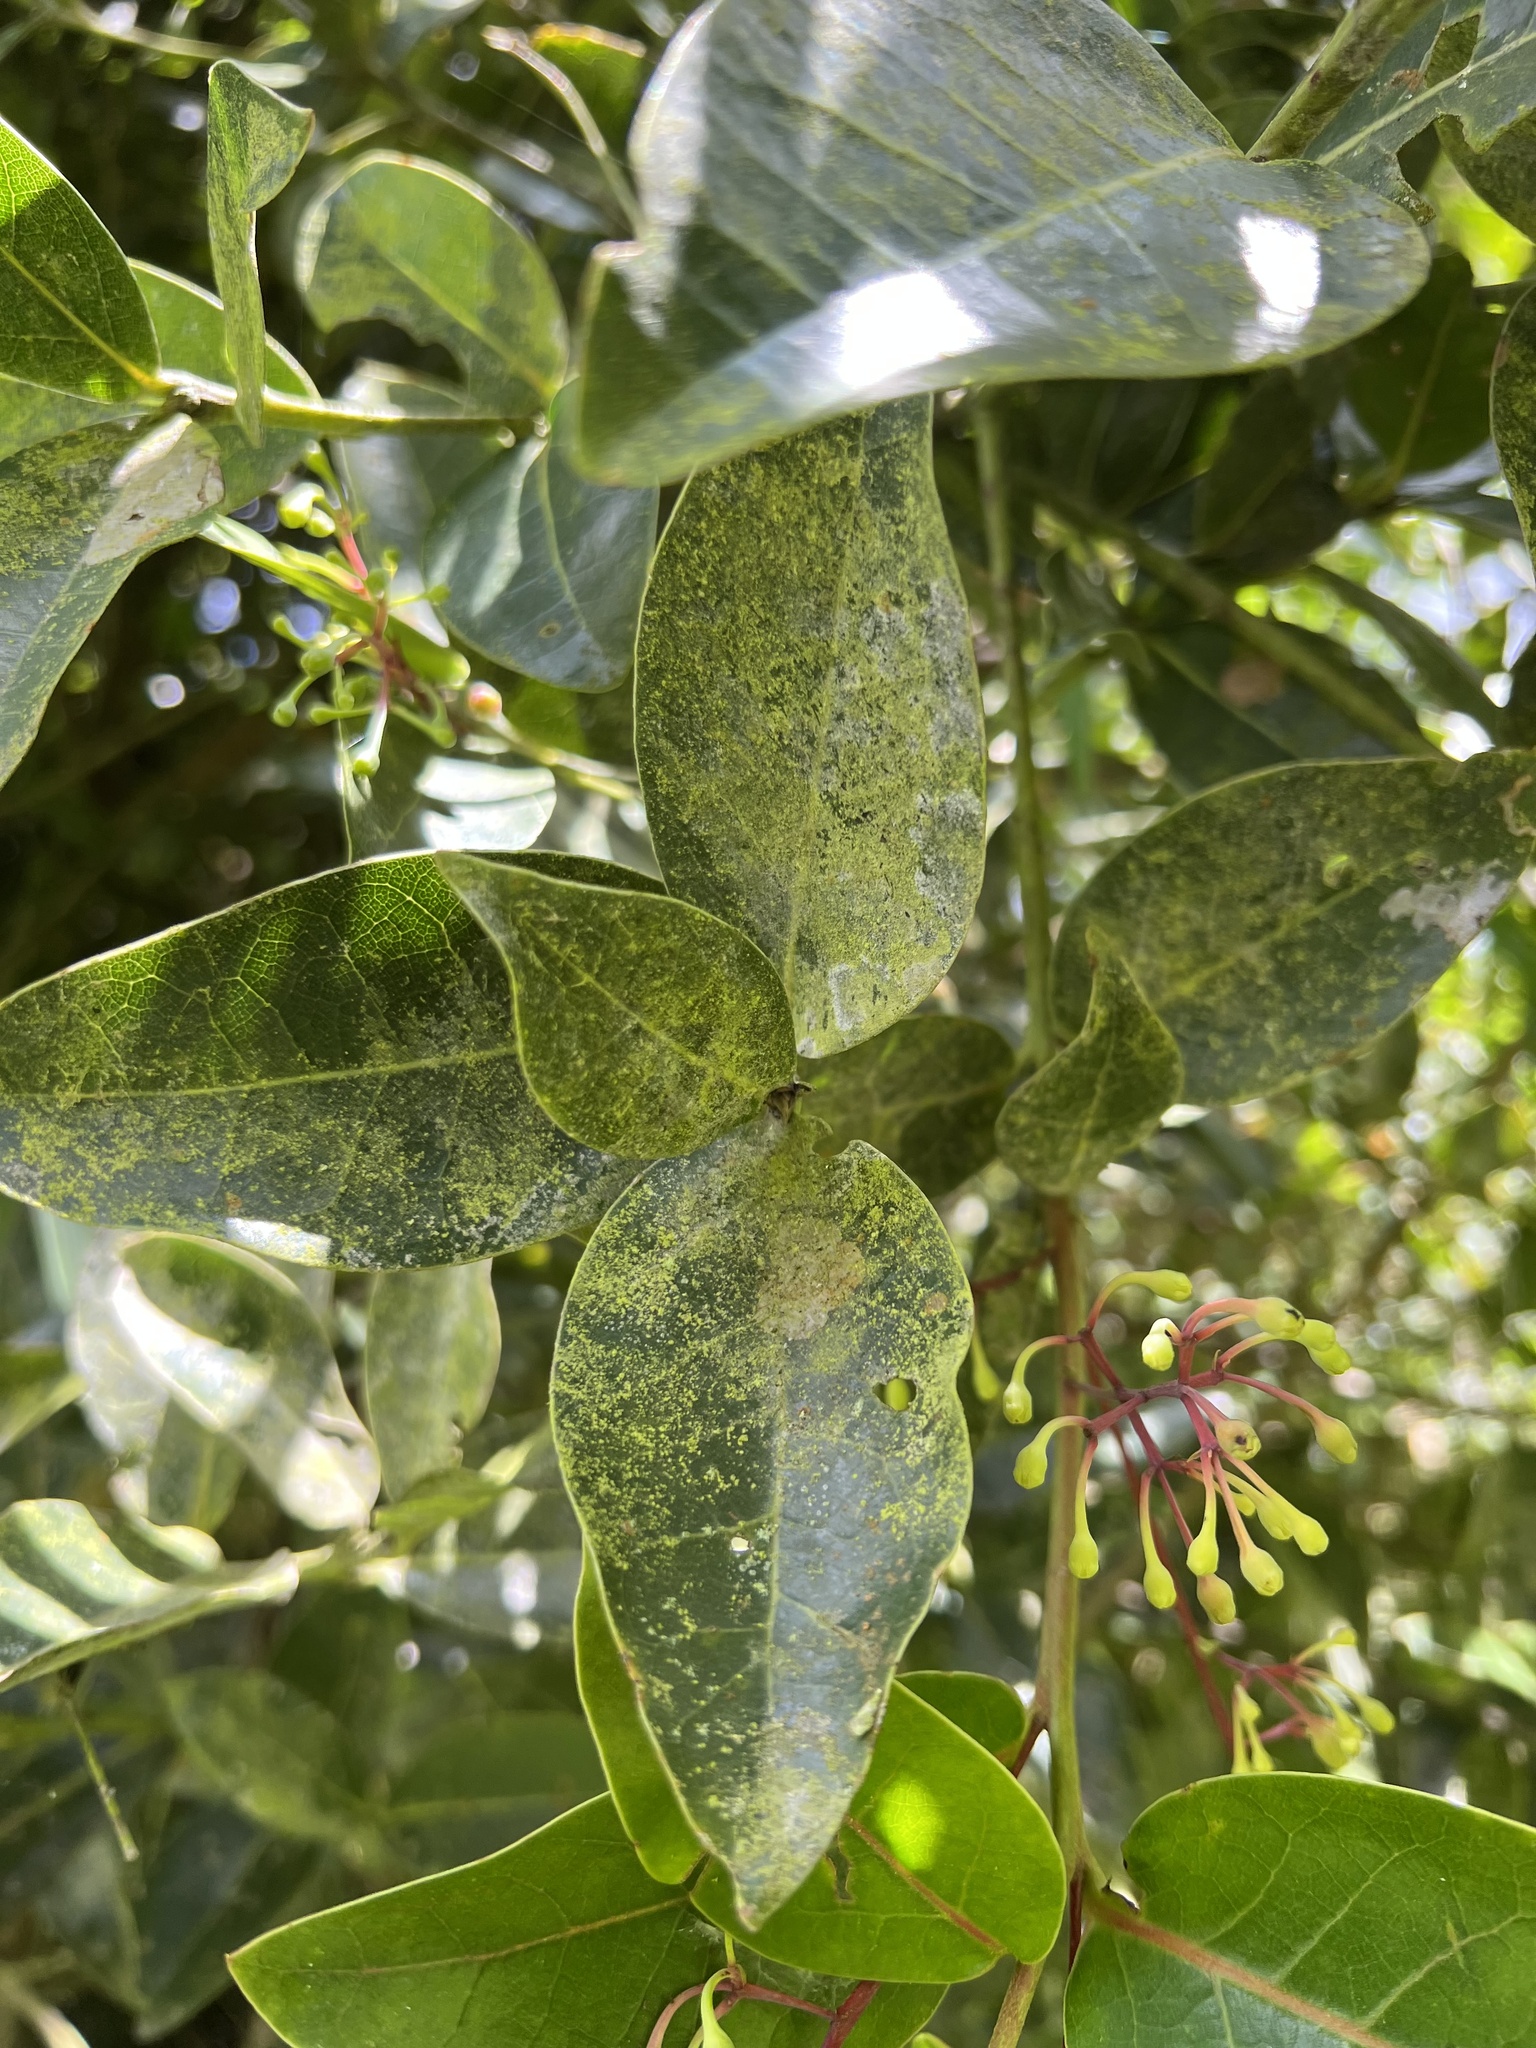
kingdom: Plantae
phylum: Tracheophyta
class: Magnoliopsida
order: Laurales
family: Lauraceae
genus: Aiouea
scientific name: Aiouea dubia
